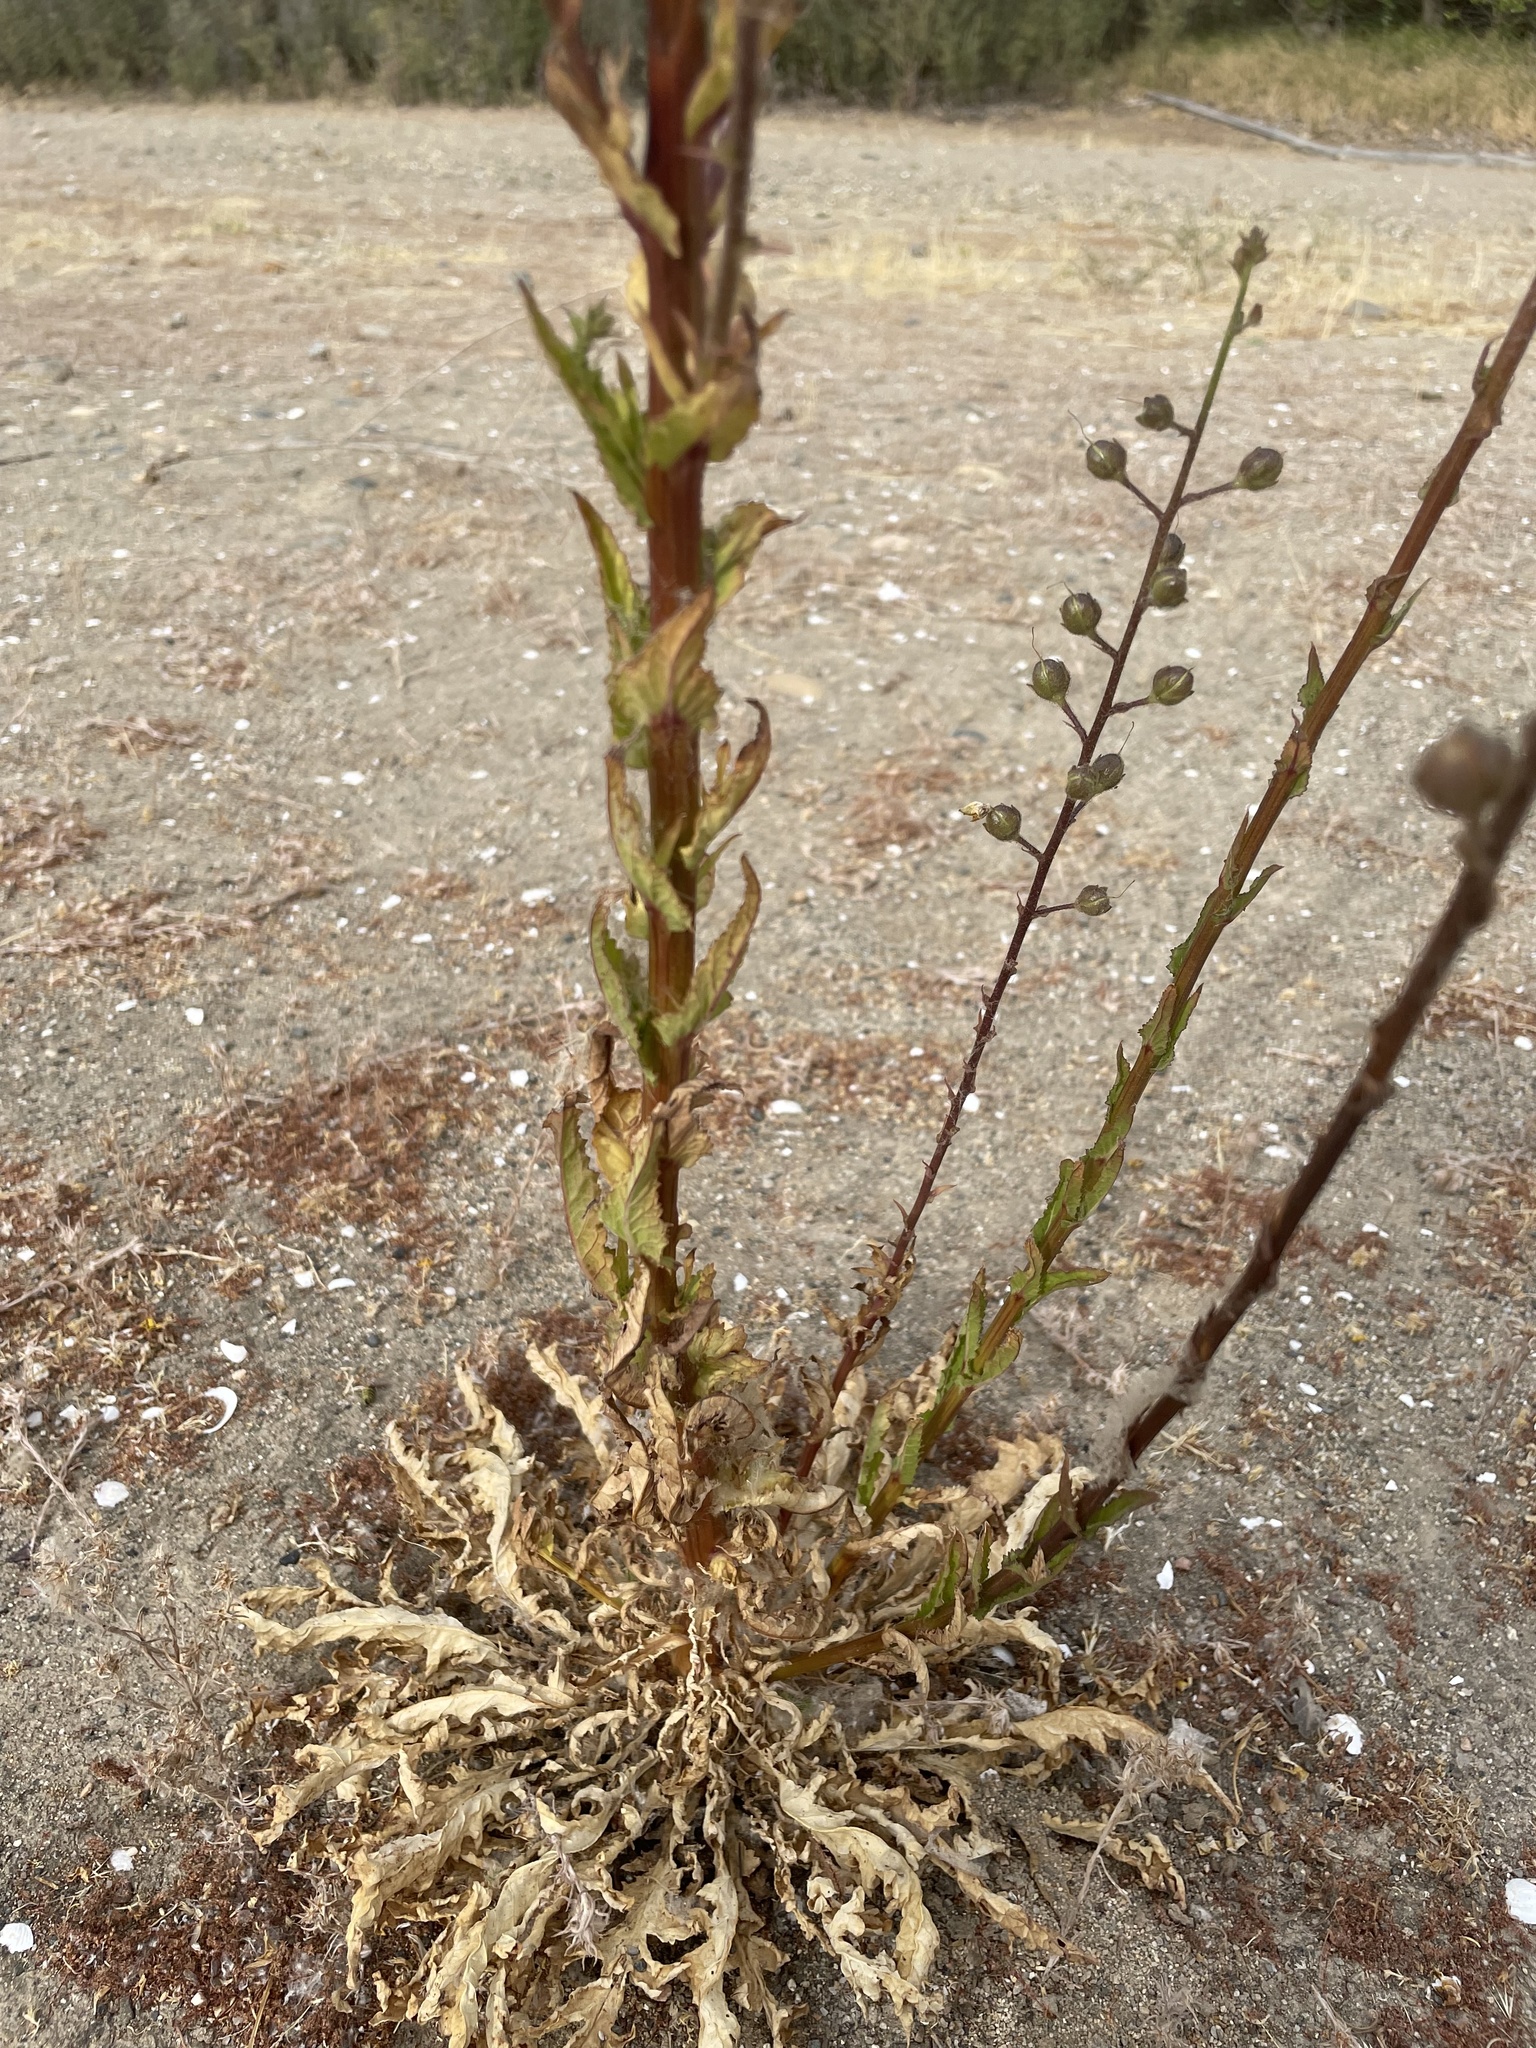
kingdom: Plantae
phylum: Tracheophyta
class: Magnoliopsida
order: Lamiales
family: Scrophulariaceae
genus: Verbascum
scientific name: Verbascum blattaria
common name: Moth mullein
